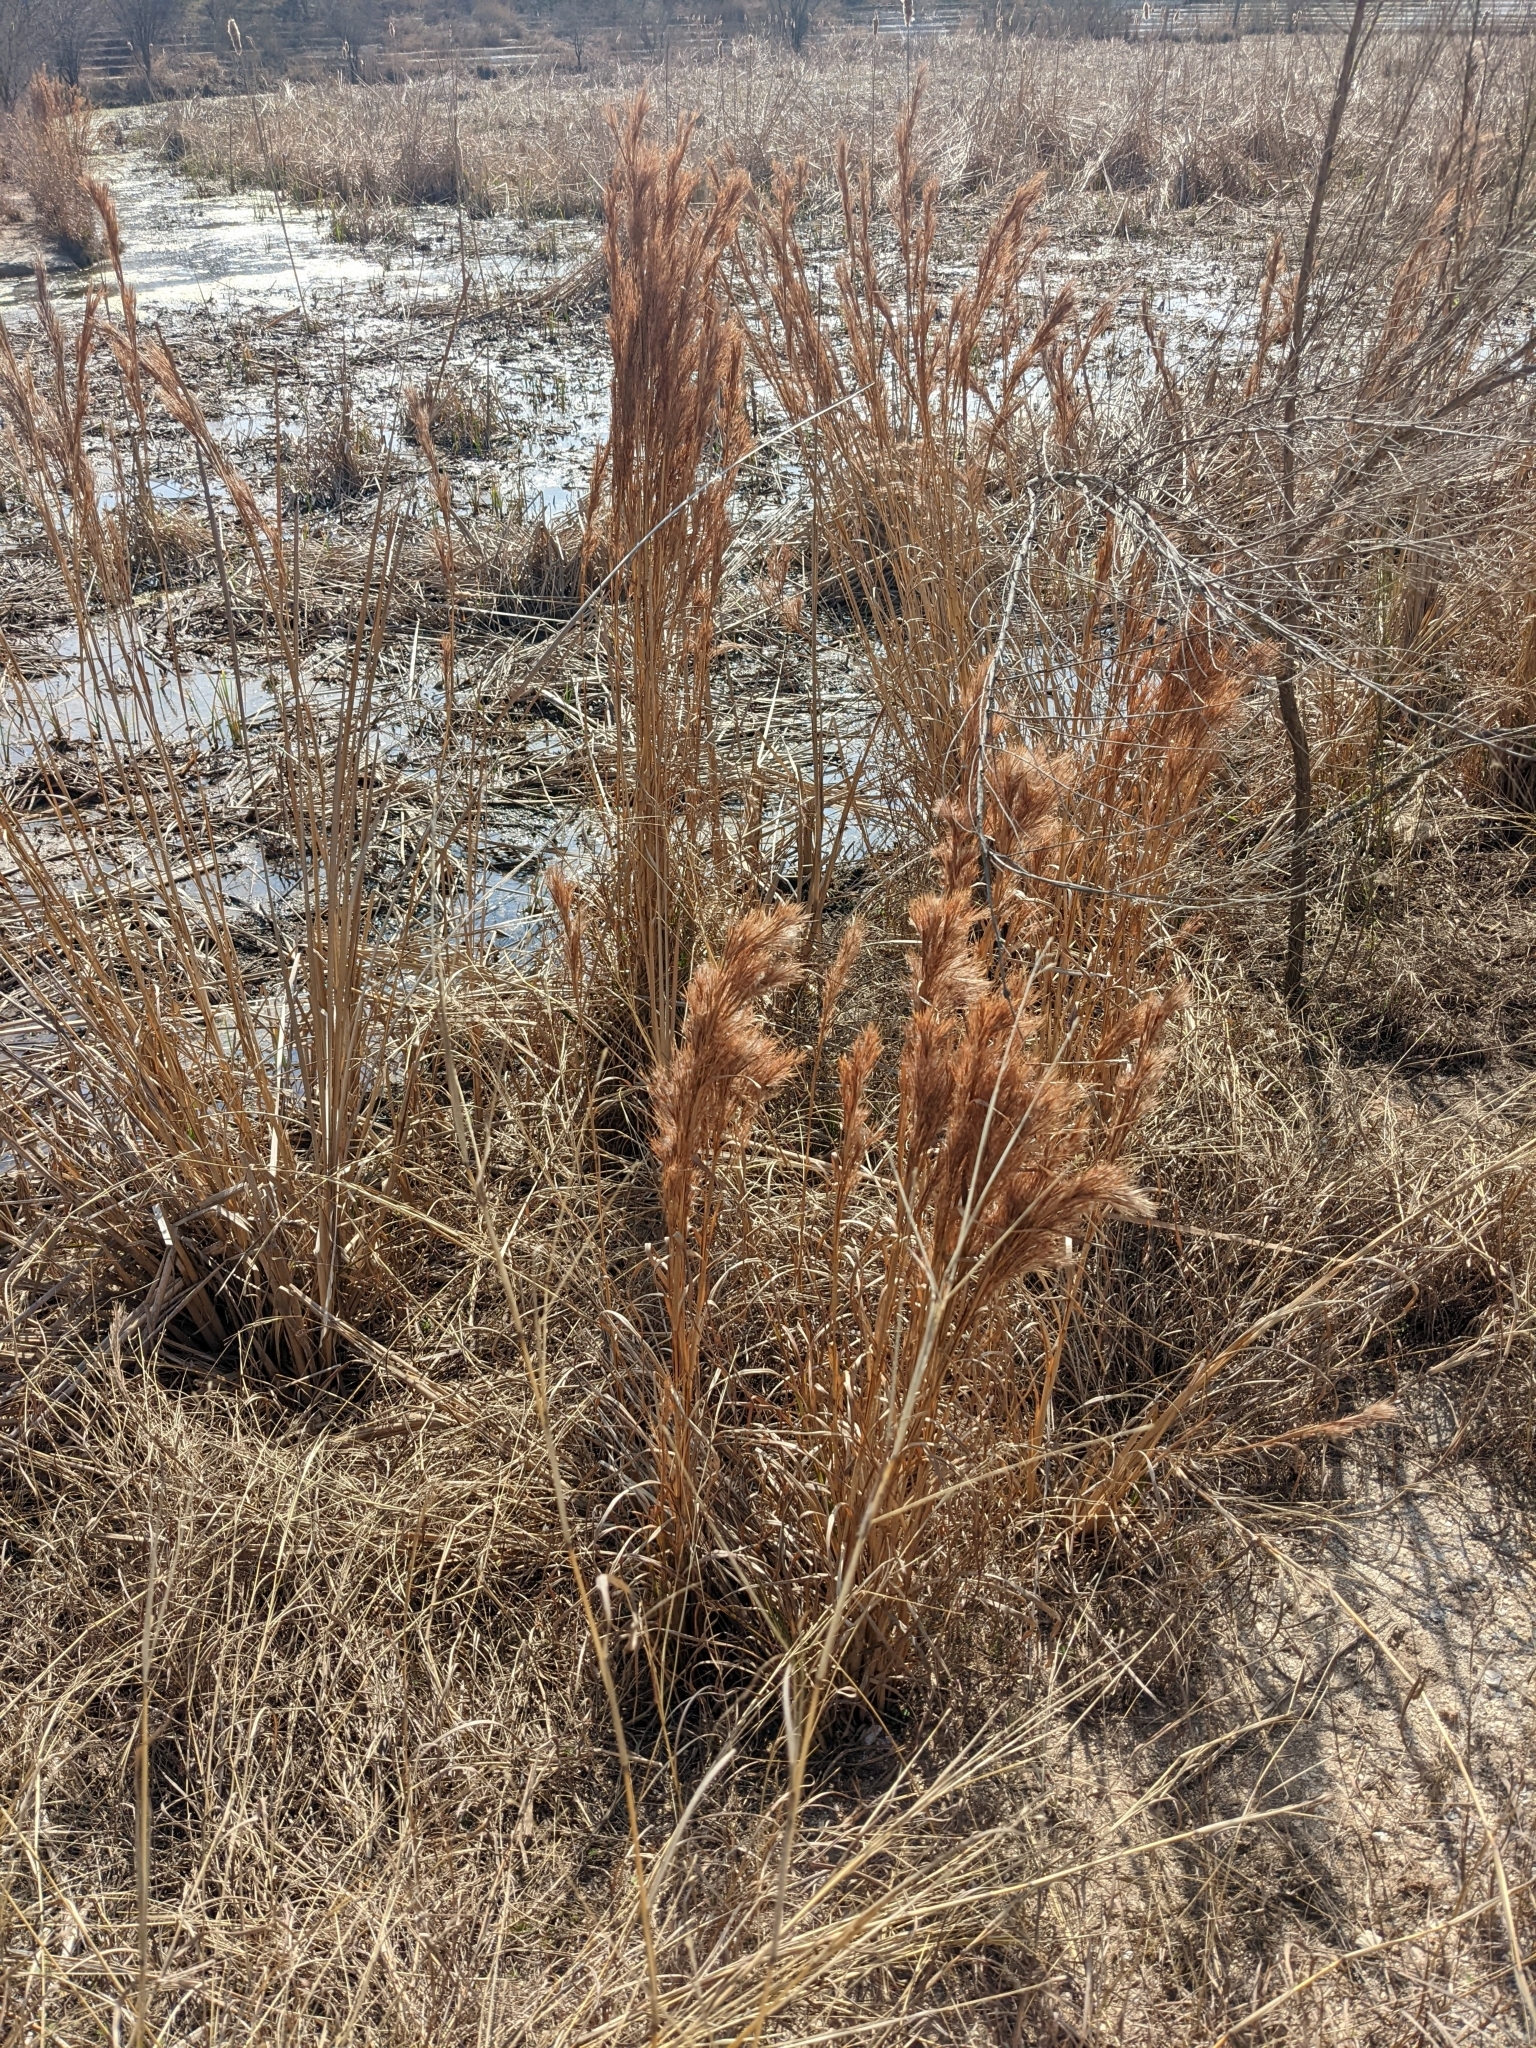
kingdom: Plantae
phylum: Tracheophyta
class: Liliopsida
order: Poales
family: Poaceae
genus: Andropogon
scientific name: Andropogon tenuispatheus
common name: Bushy bluestem
